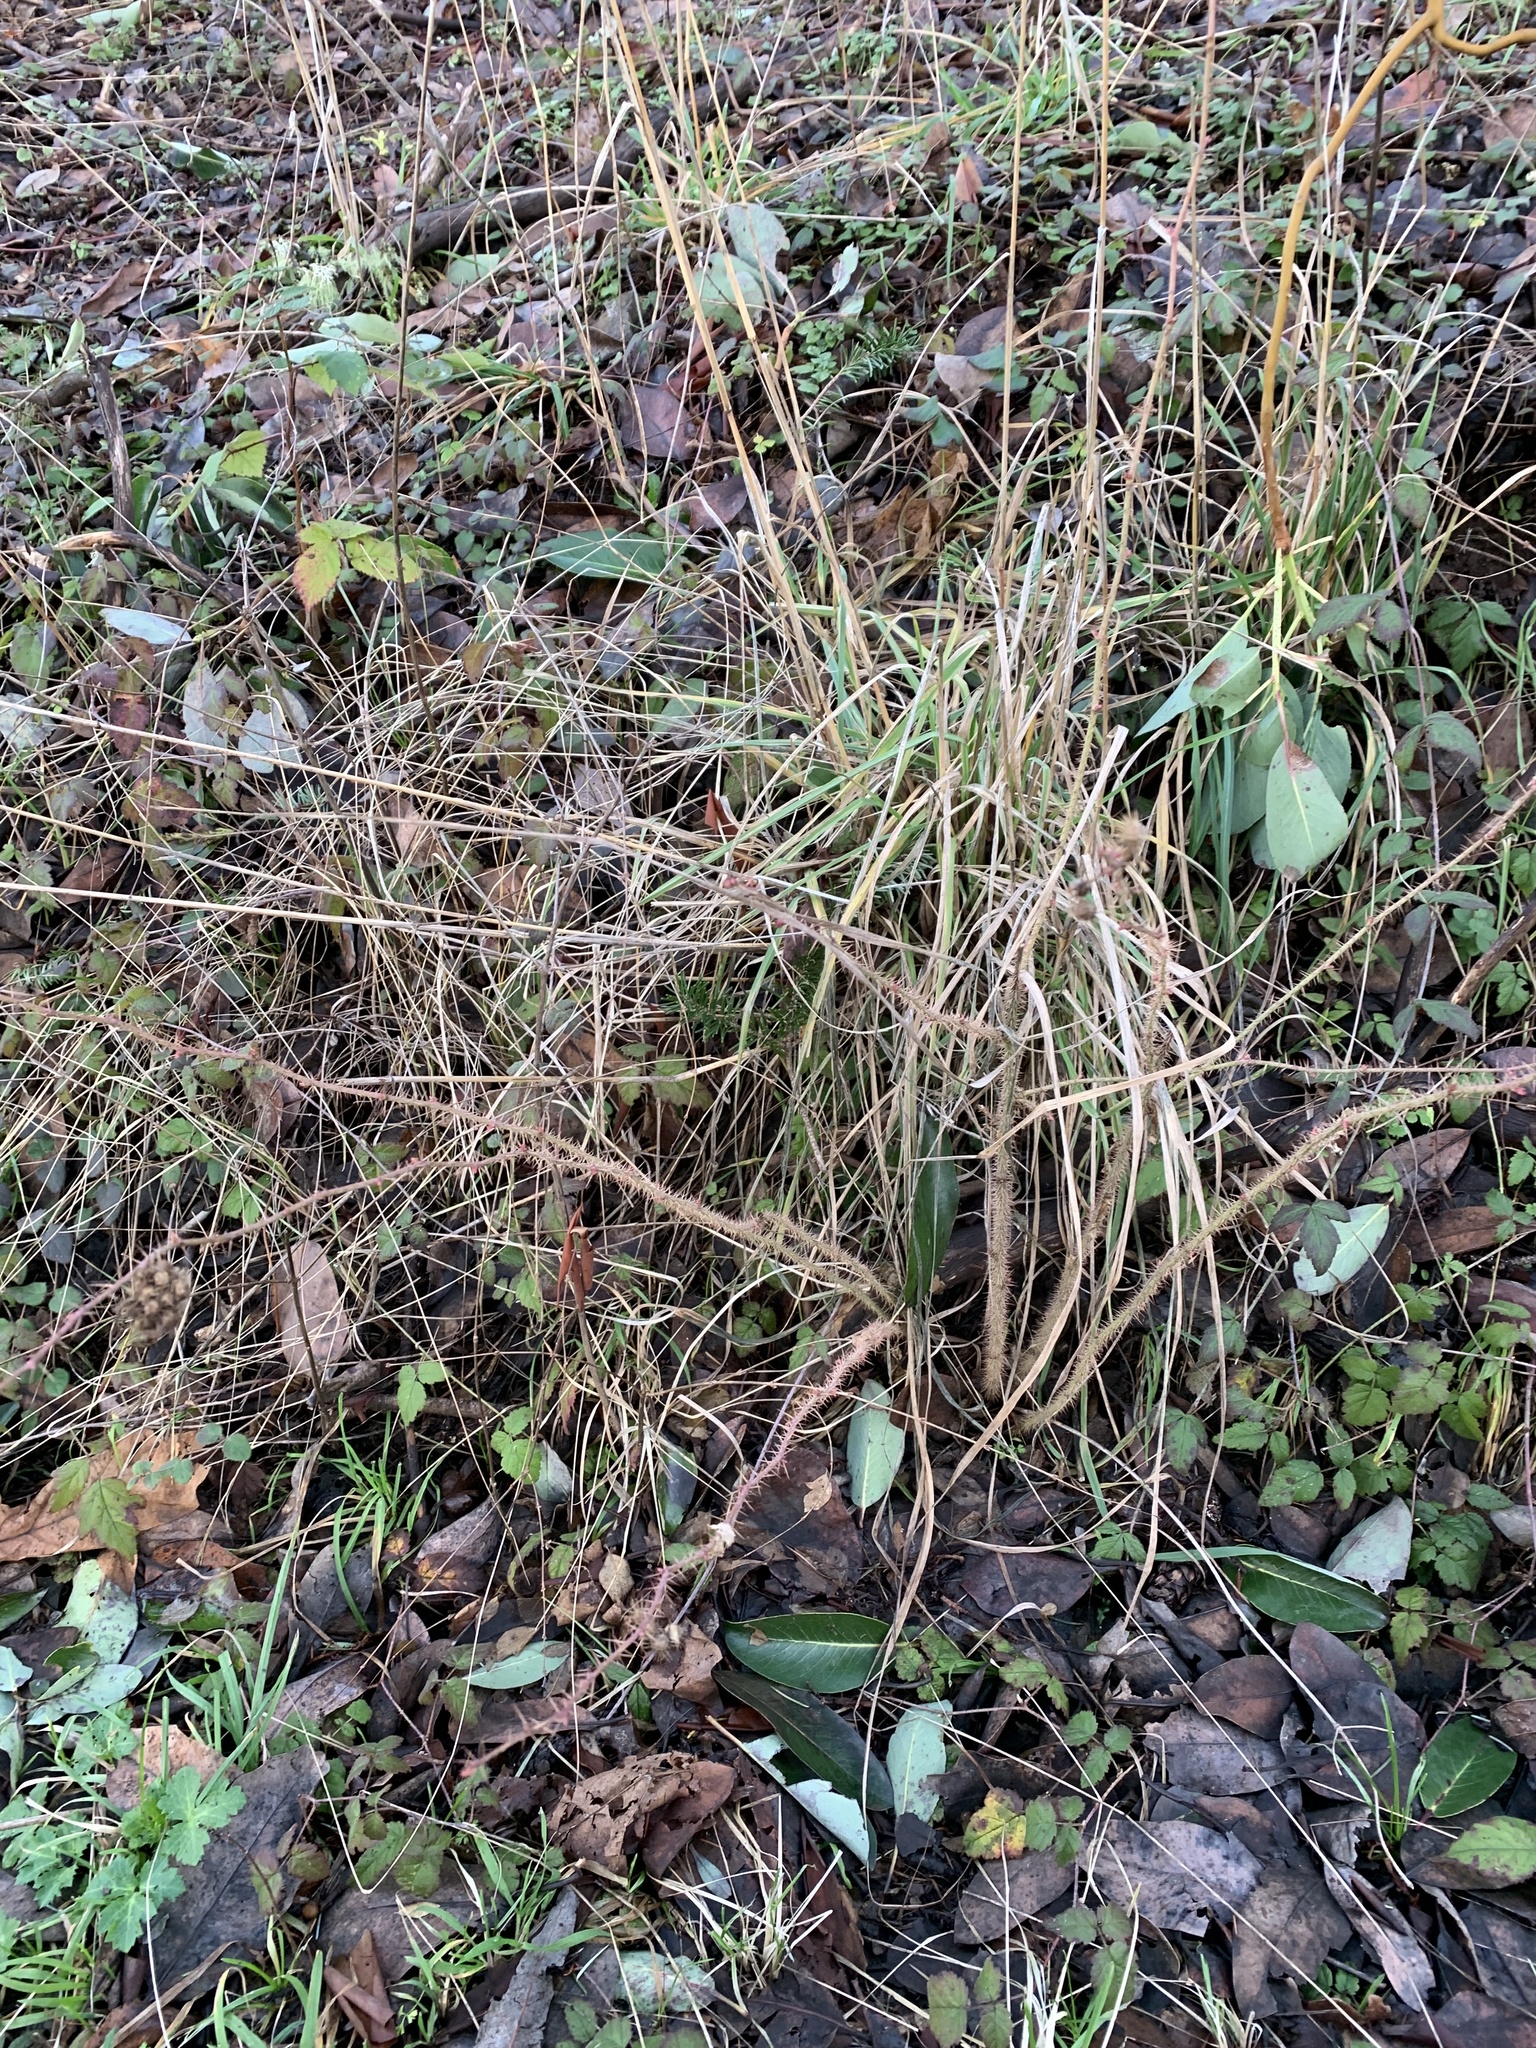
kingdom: Animalia
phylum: Arthropoda
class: Insecta
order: Hymenoptera
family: Cynipidae
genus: Diplolepis
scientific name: Diplolepis bicolor
